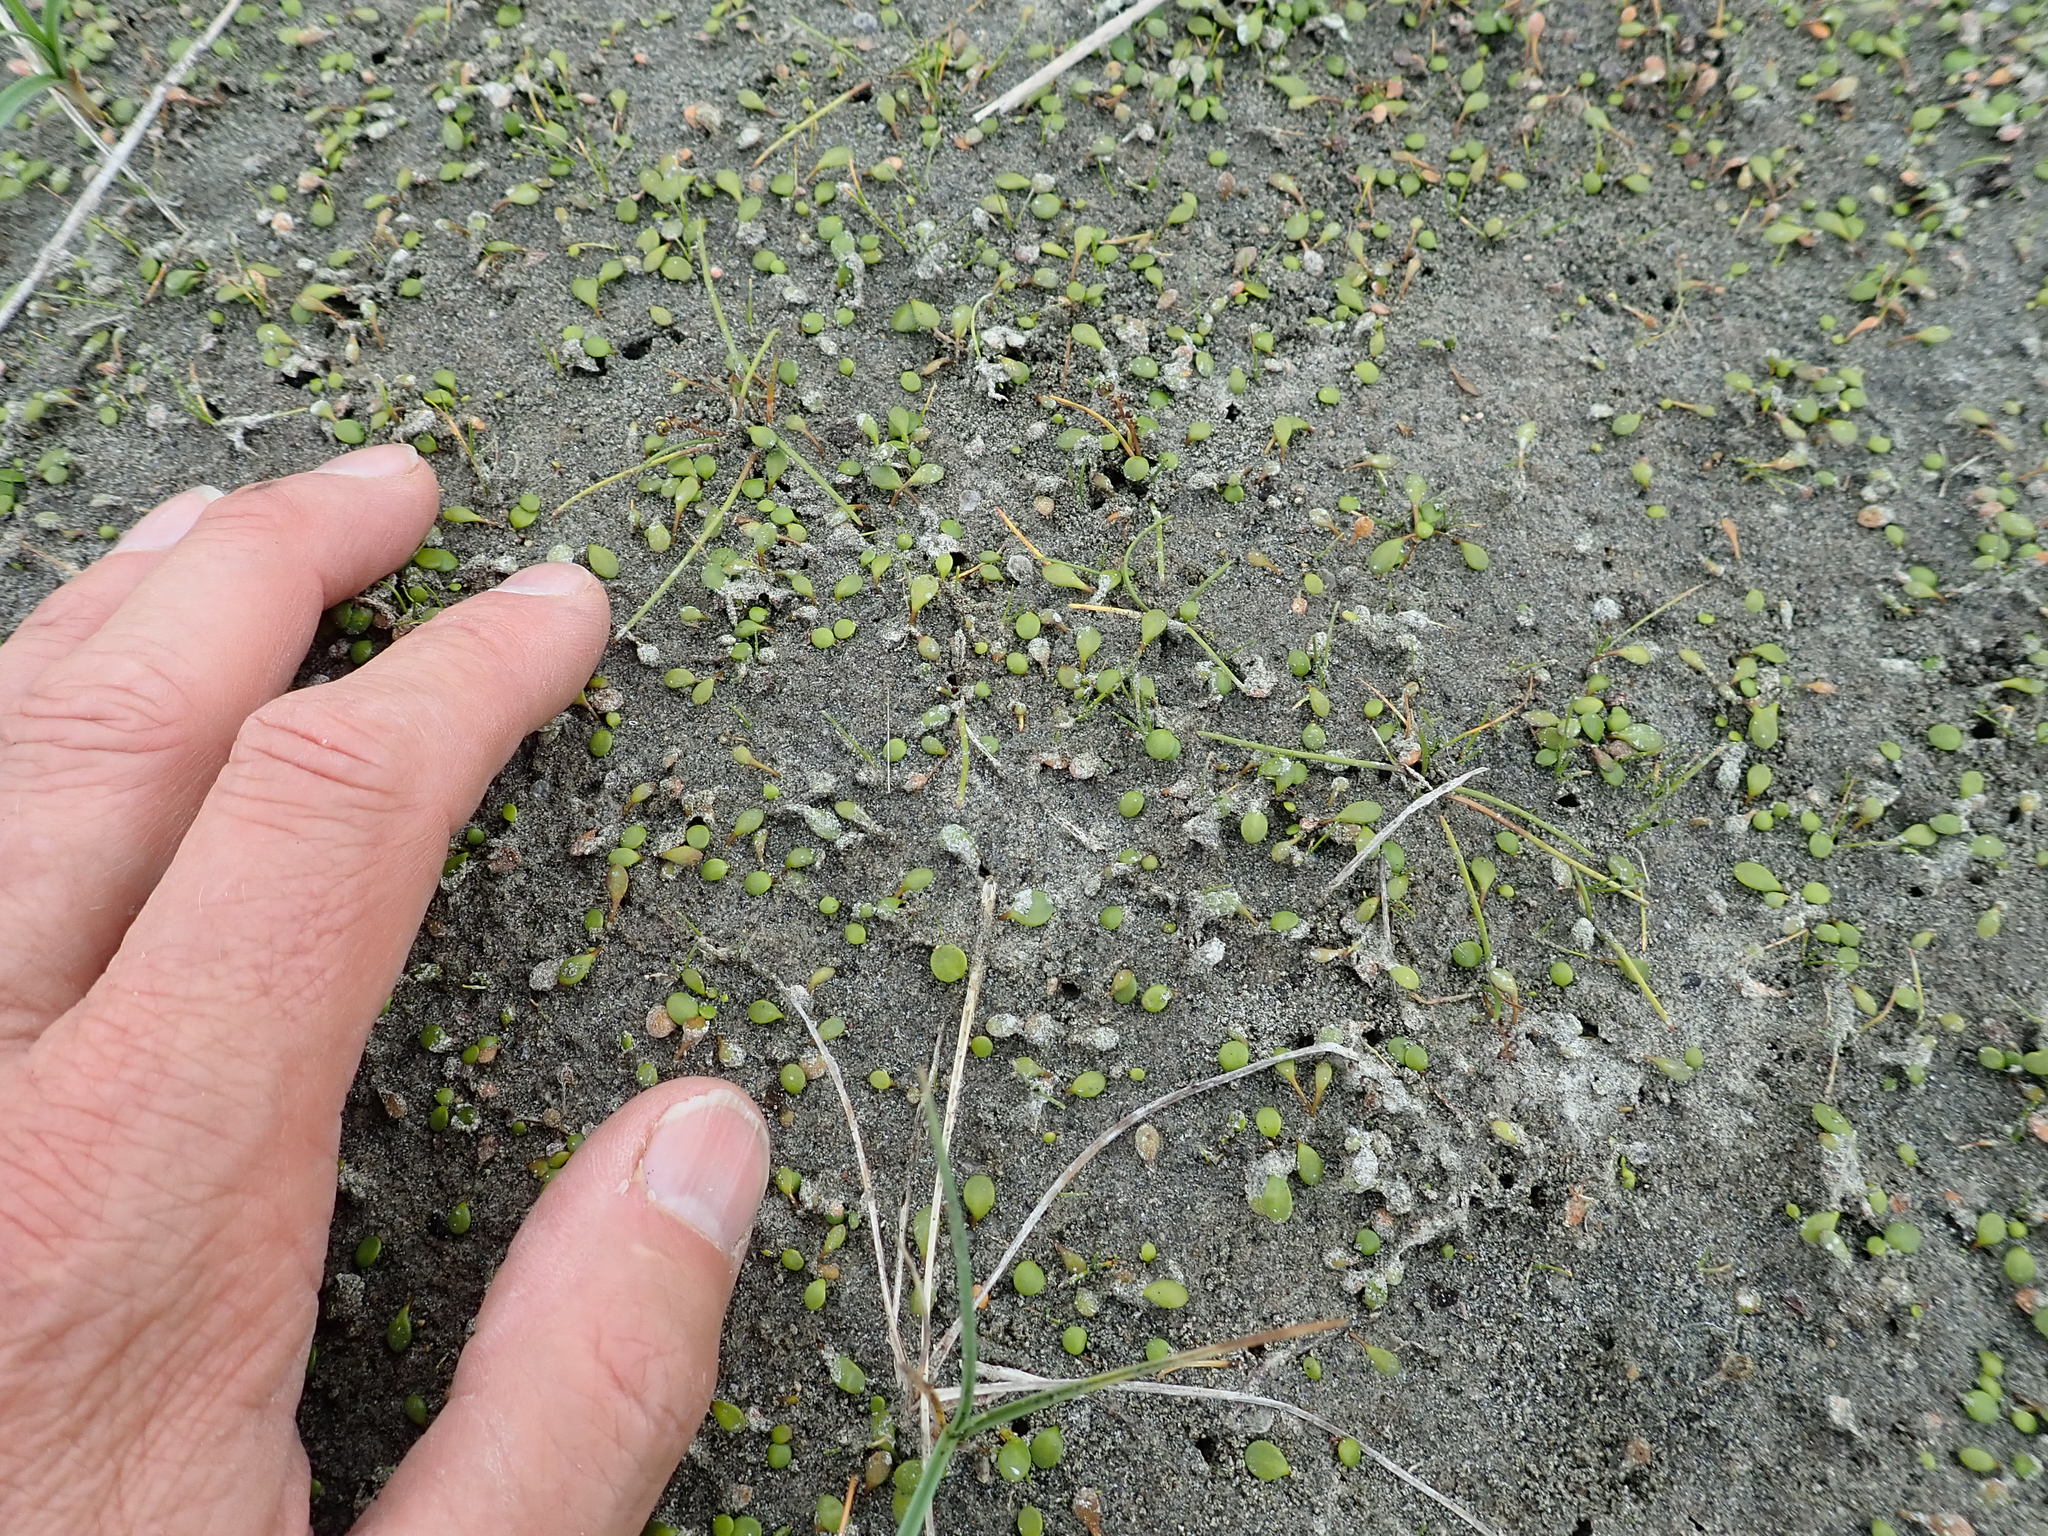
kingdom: Plantae
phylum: Tracheophyta
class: Liliopsida
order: Alismatales
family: Juncaginaceae
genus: Triglochin
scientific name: Triglochin striata
